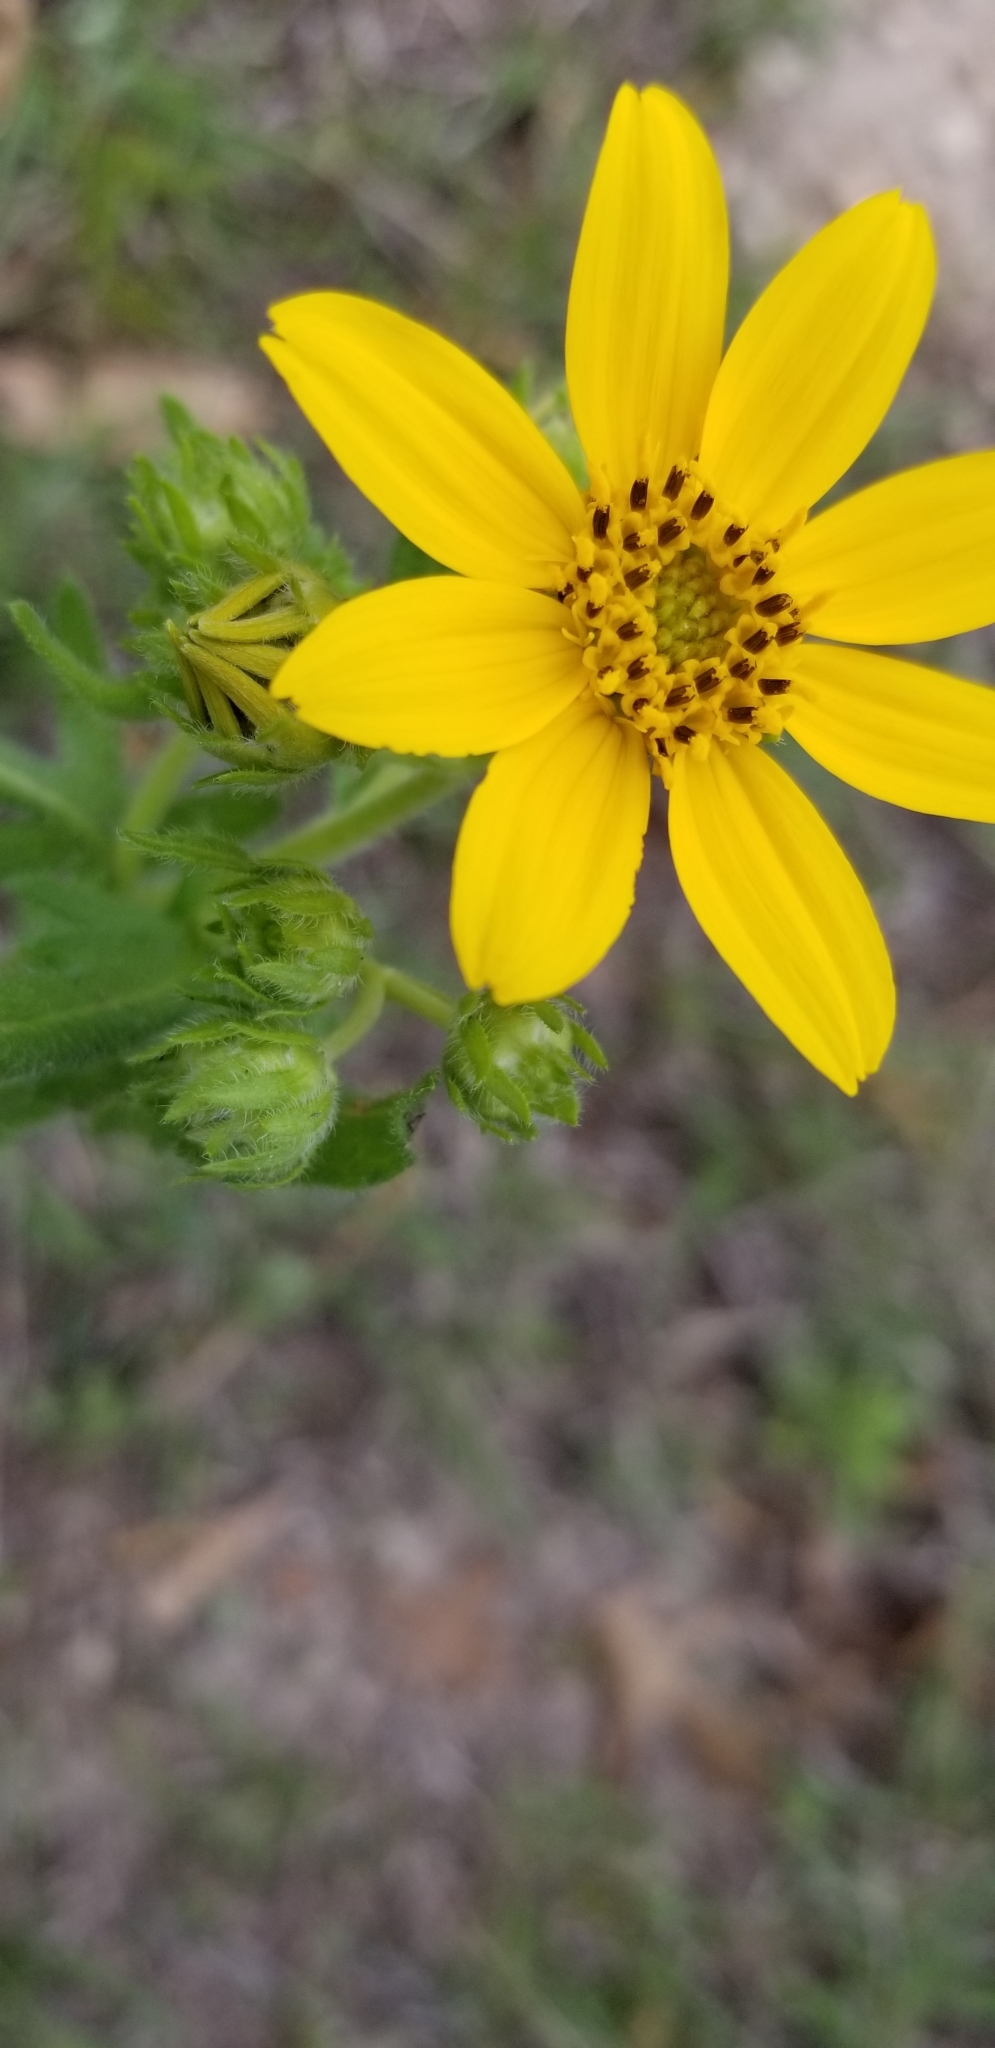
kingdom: Plantae
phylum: Tracheophyta
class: Magnoliopsida
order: Asterales
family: Asteraceae
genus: Engelmannia
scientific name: Engelmannia peristenia
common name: Engelmann's daisy
